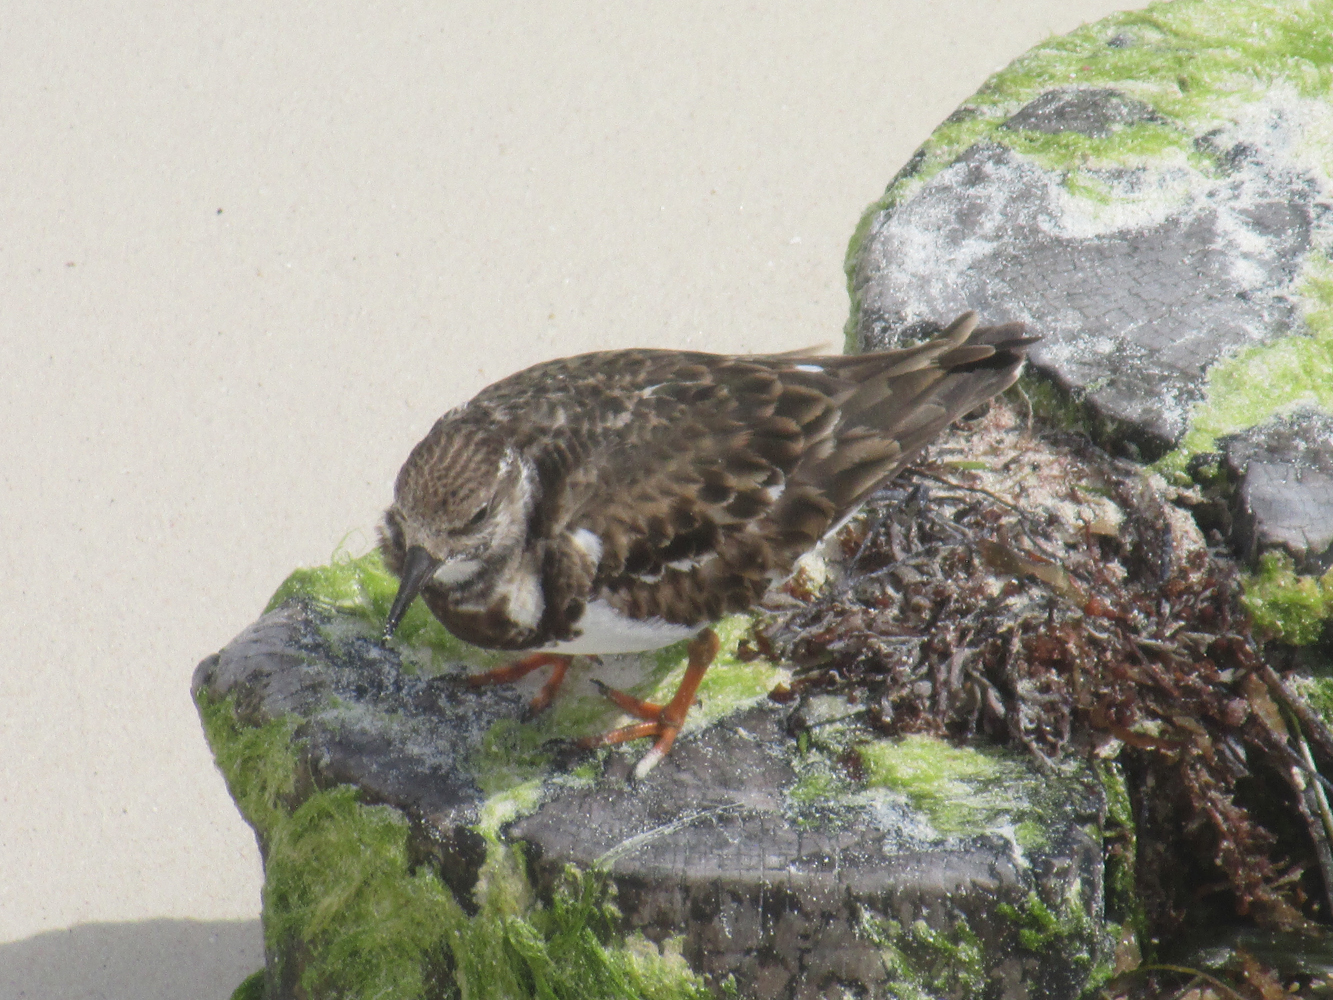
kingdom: Animalia
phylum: Chordata
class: Aves
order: Charadriiformes
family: Scolopacidae
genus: Arenaria
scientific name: Arenaria interpres
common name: Ruddy turnstone
